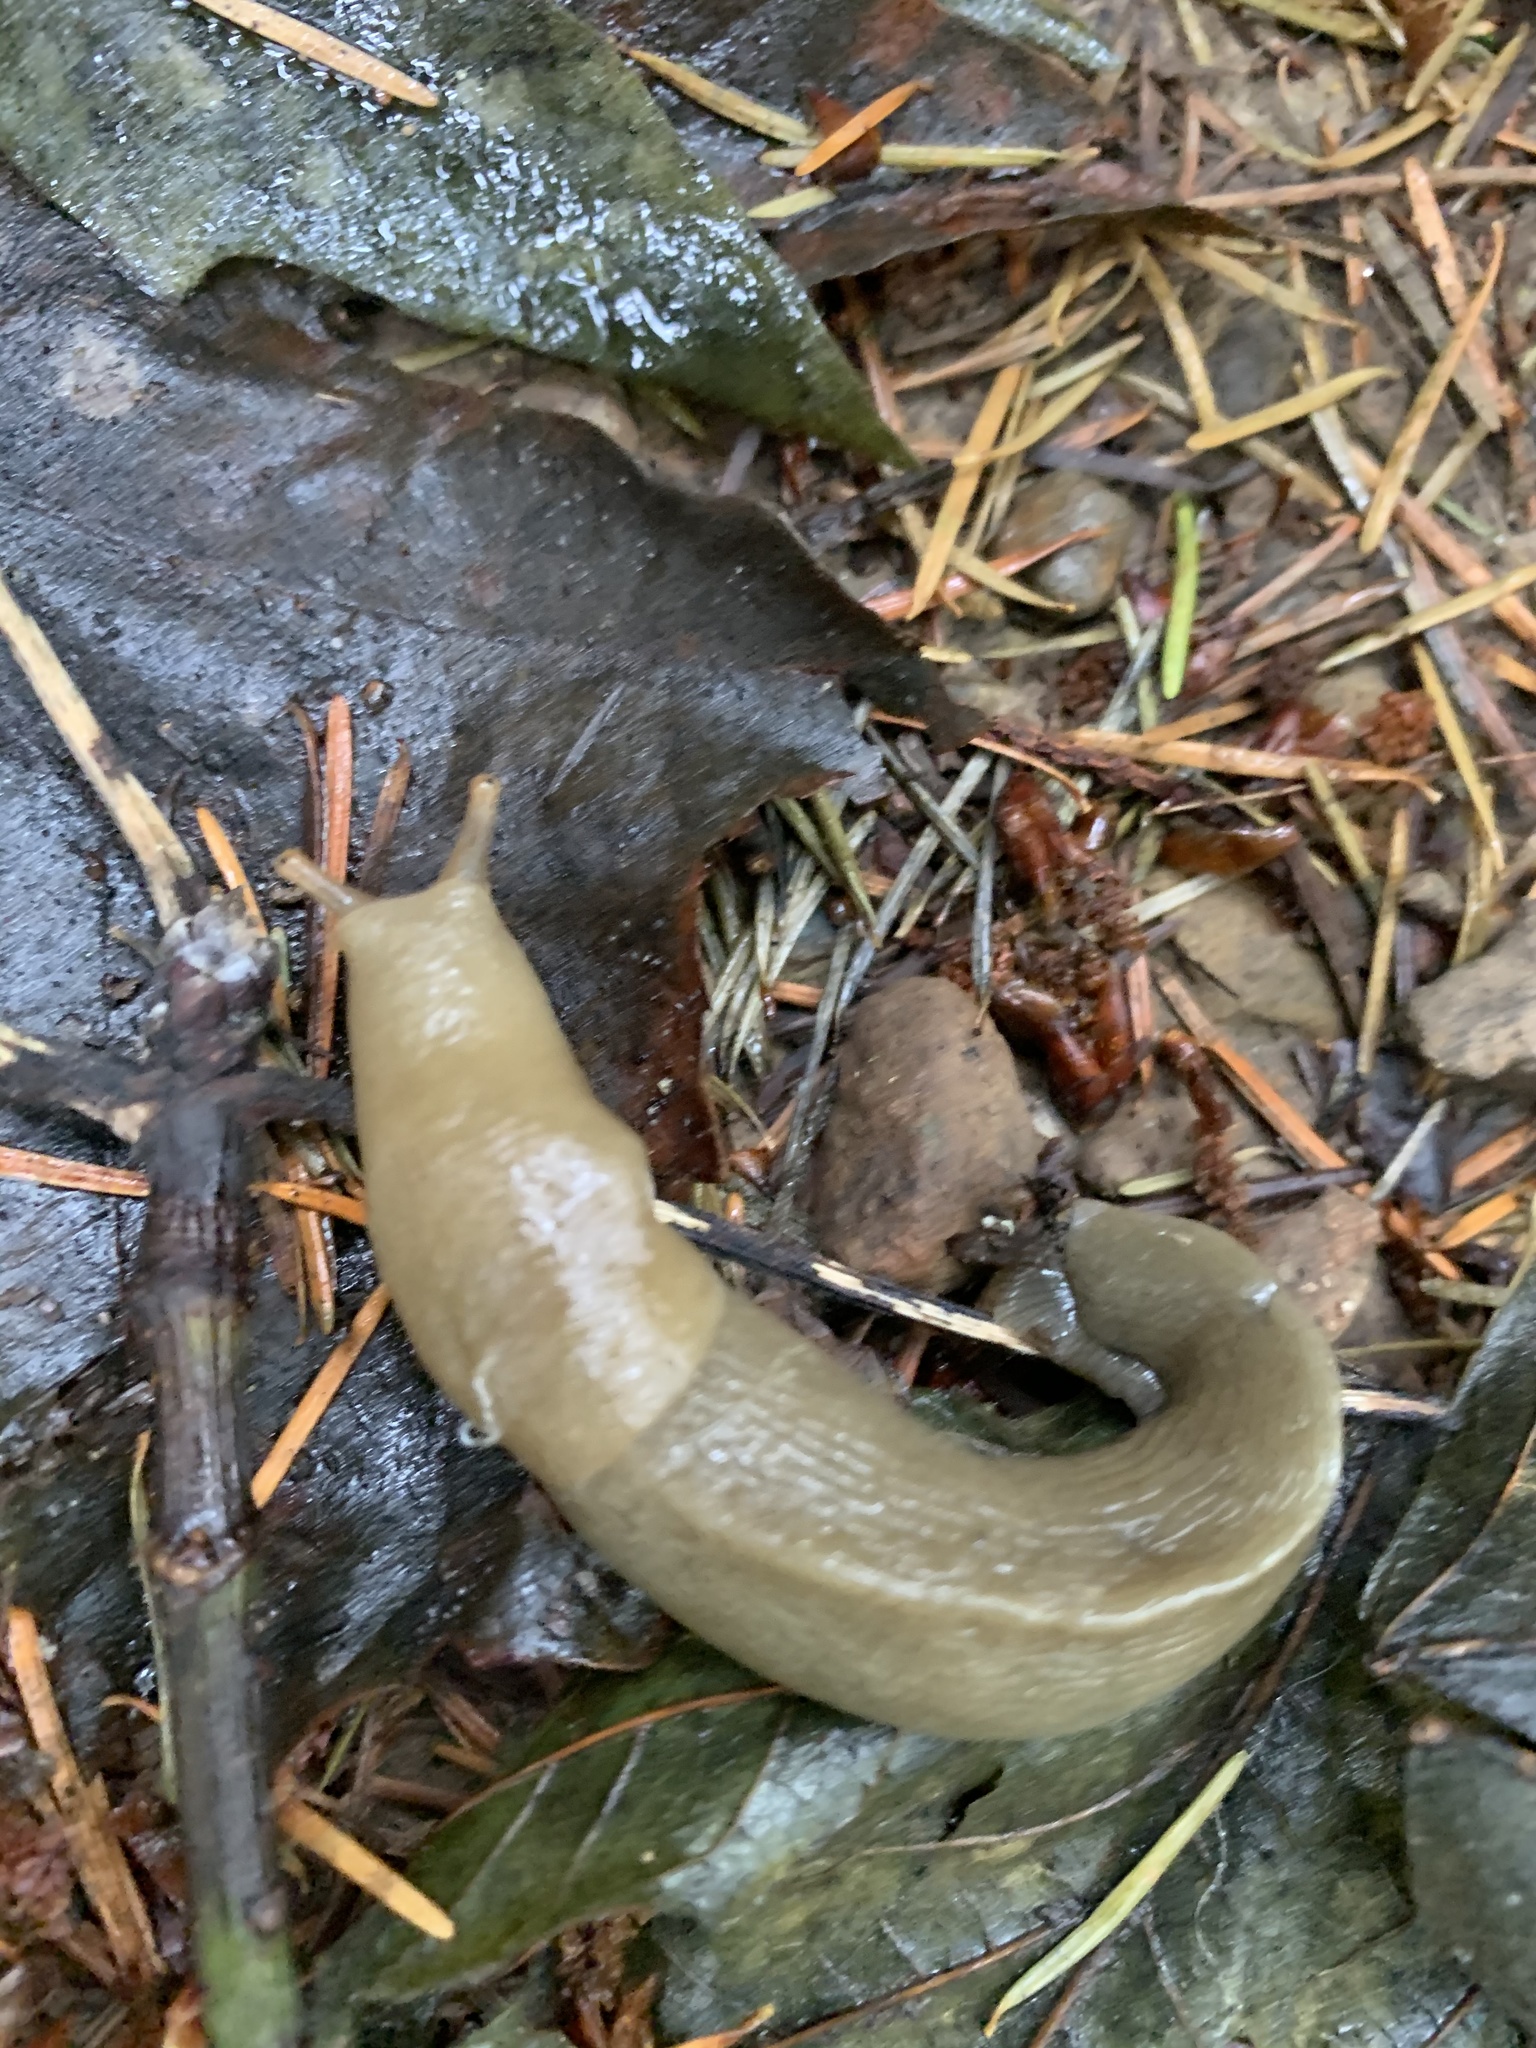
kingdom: Animalia
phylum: Mollusca
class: Gastropoda
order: Stylommatophora
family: Ariolimacidae
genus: Ariolimax
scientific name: Ariolimax columbianus
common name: Pacific banana slug
